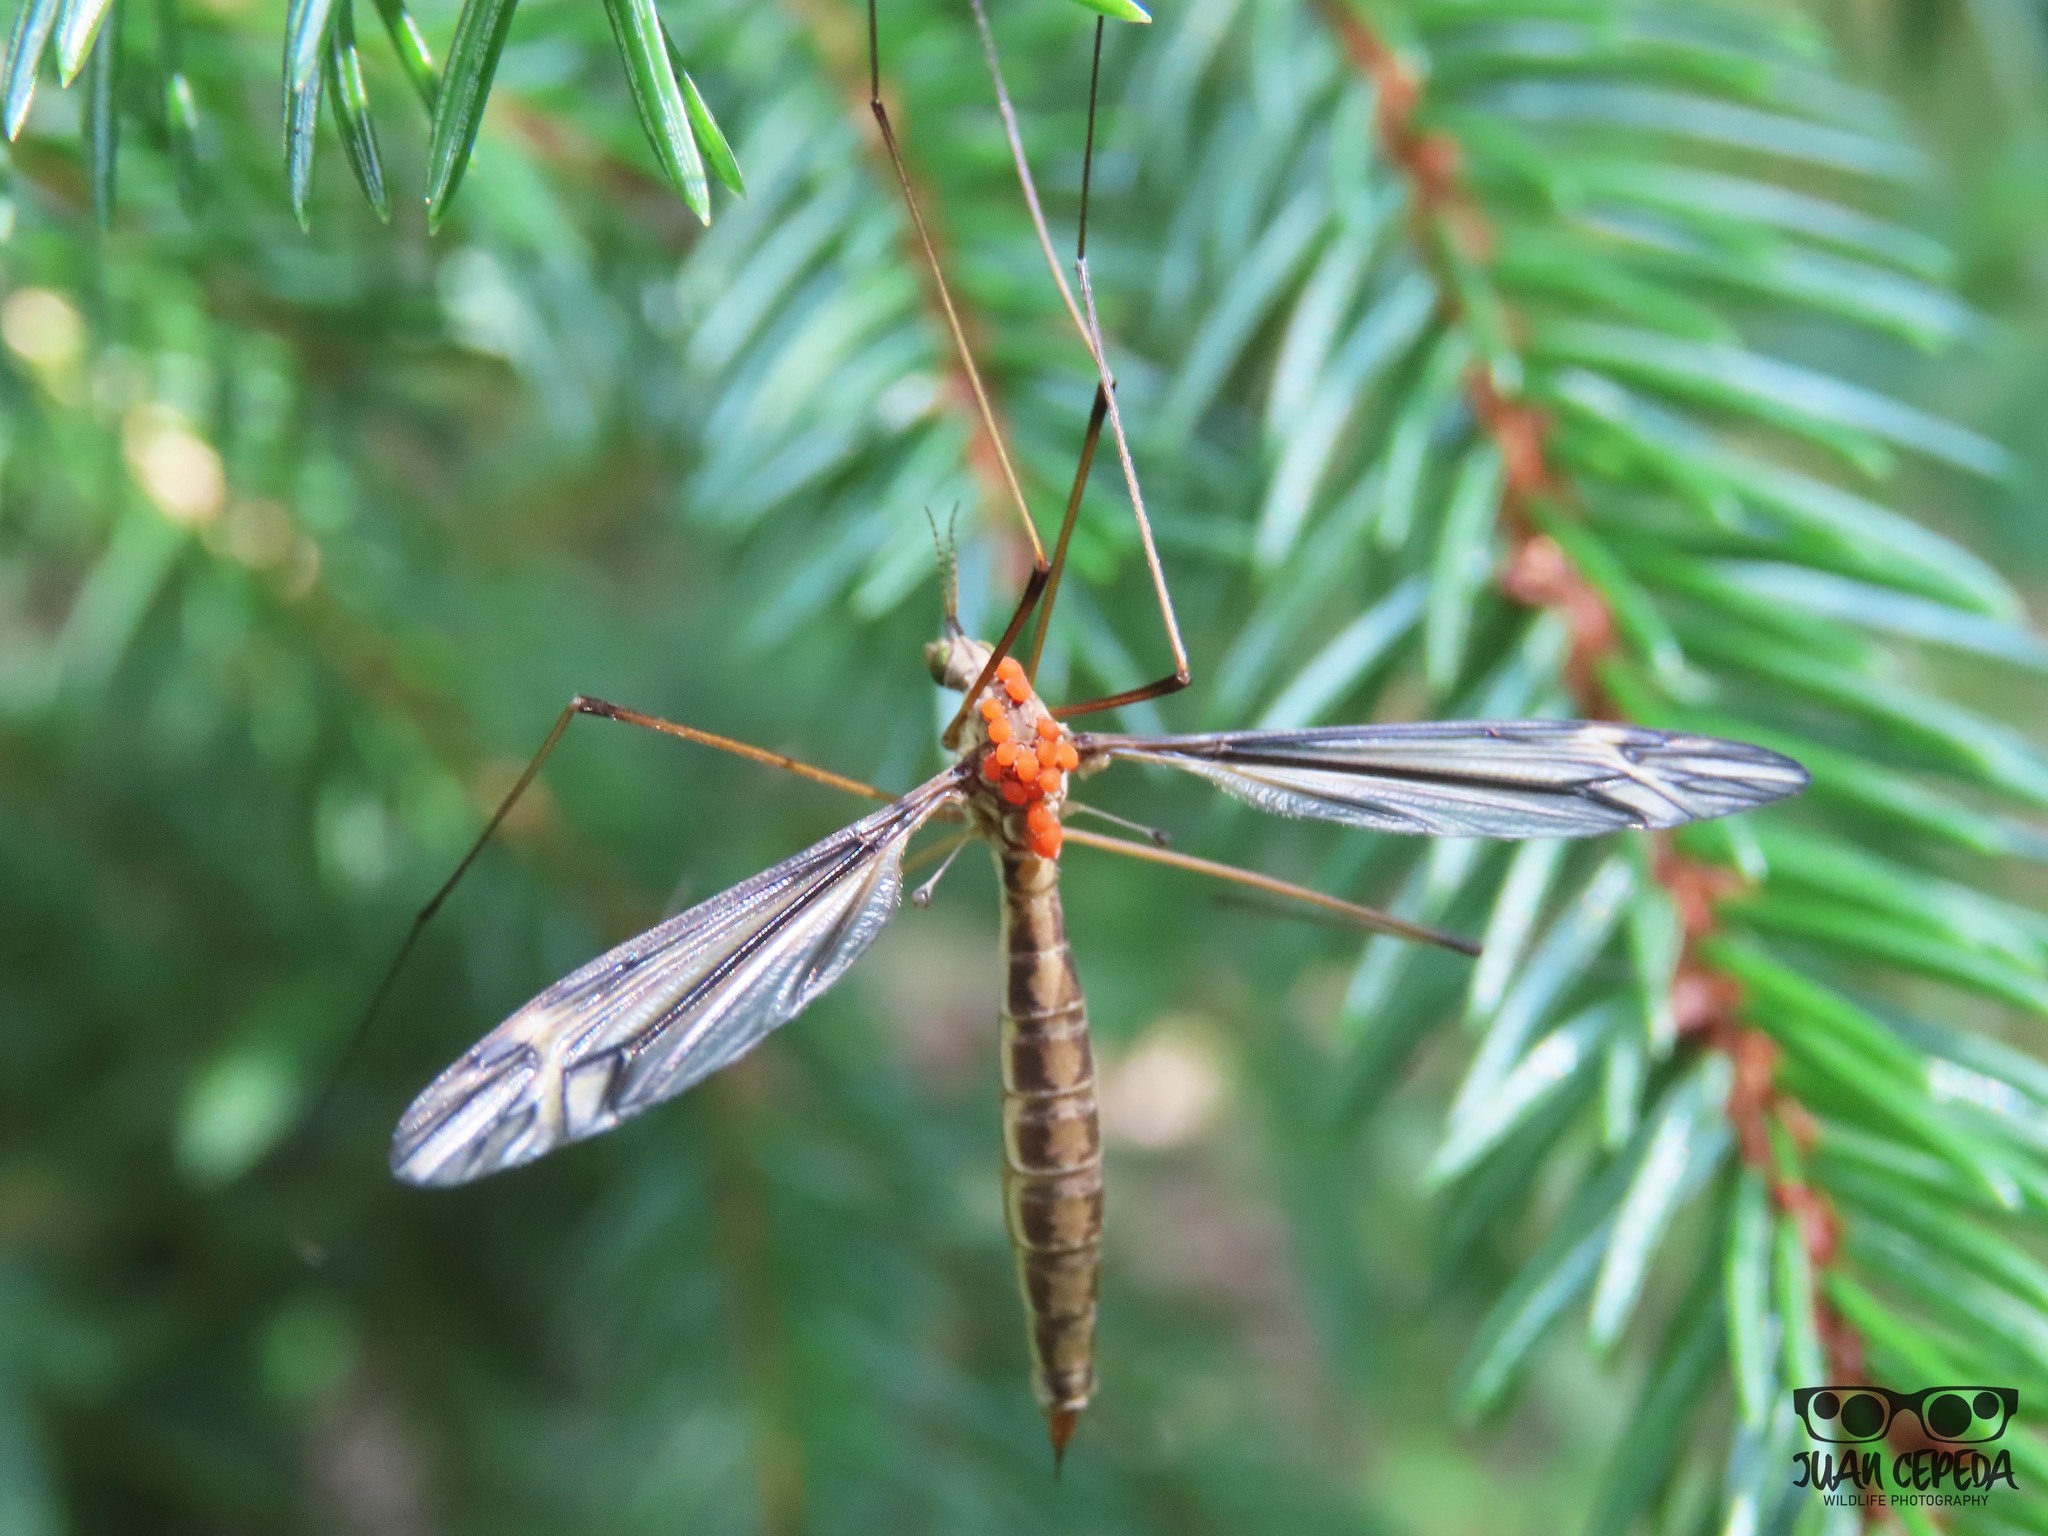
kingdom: Animalia
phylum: Arthropoda
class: Insecta
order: Diptera
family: Tipulidae
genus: Tipula
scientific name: Tipula concava
